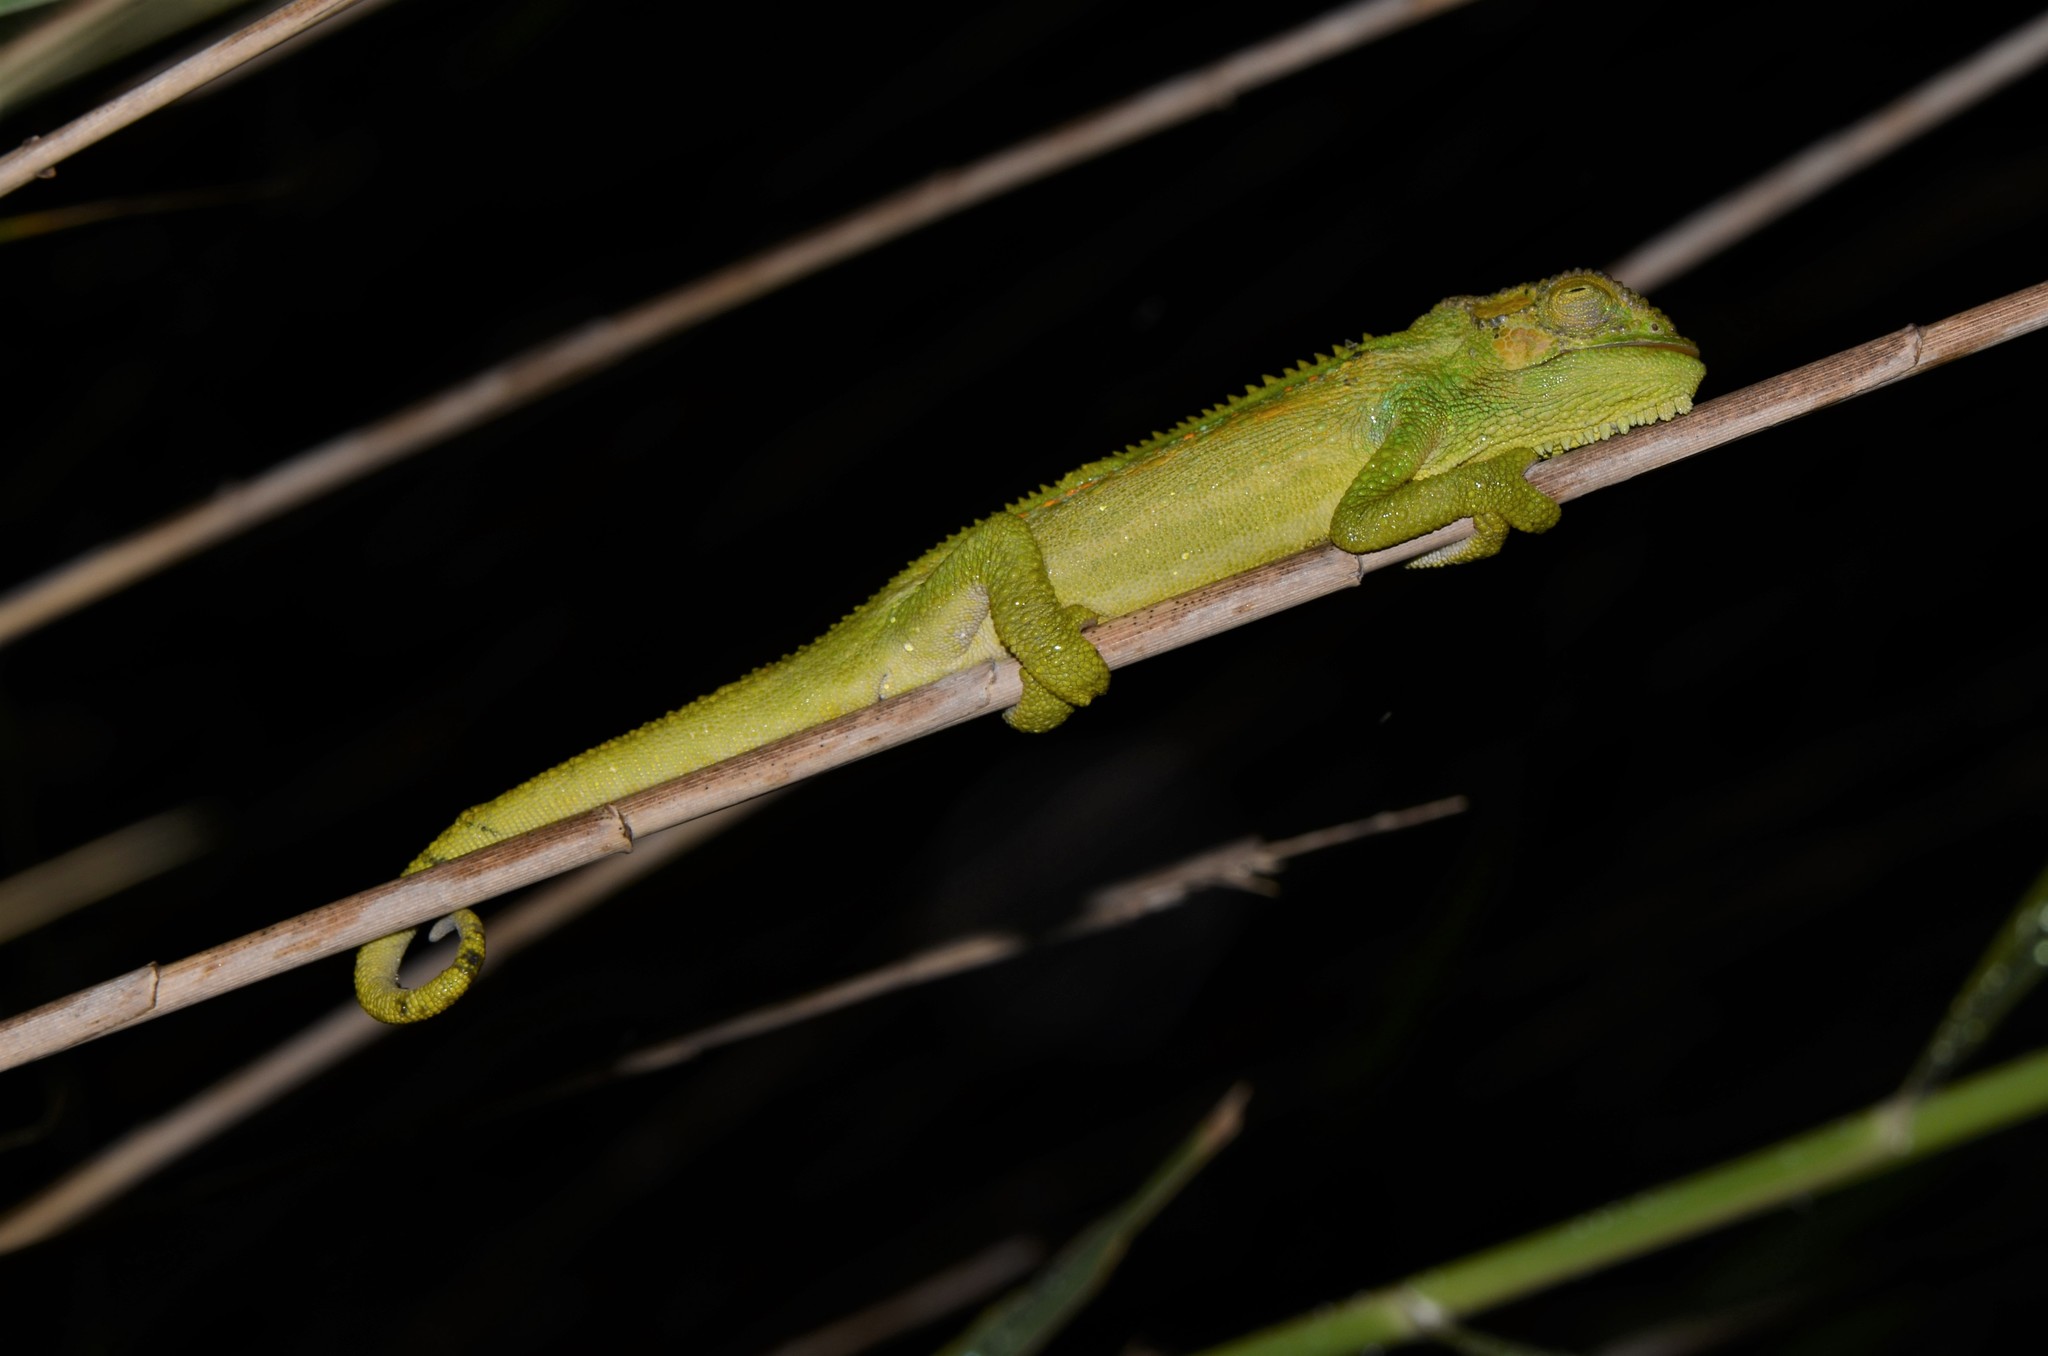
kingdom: Animalia
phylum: Chordata
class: Squamata
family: Chamaeleonidae
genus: Bradypodion
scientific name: Bradypodion pumilum
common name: Cape dwarf chameleon
